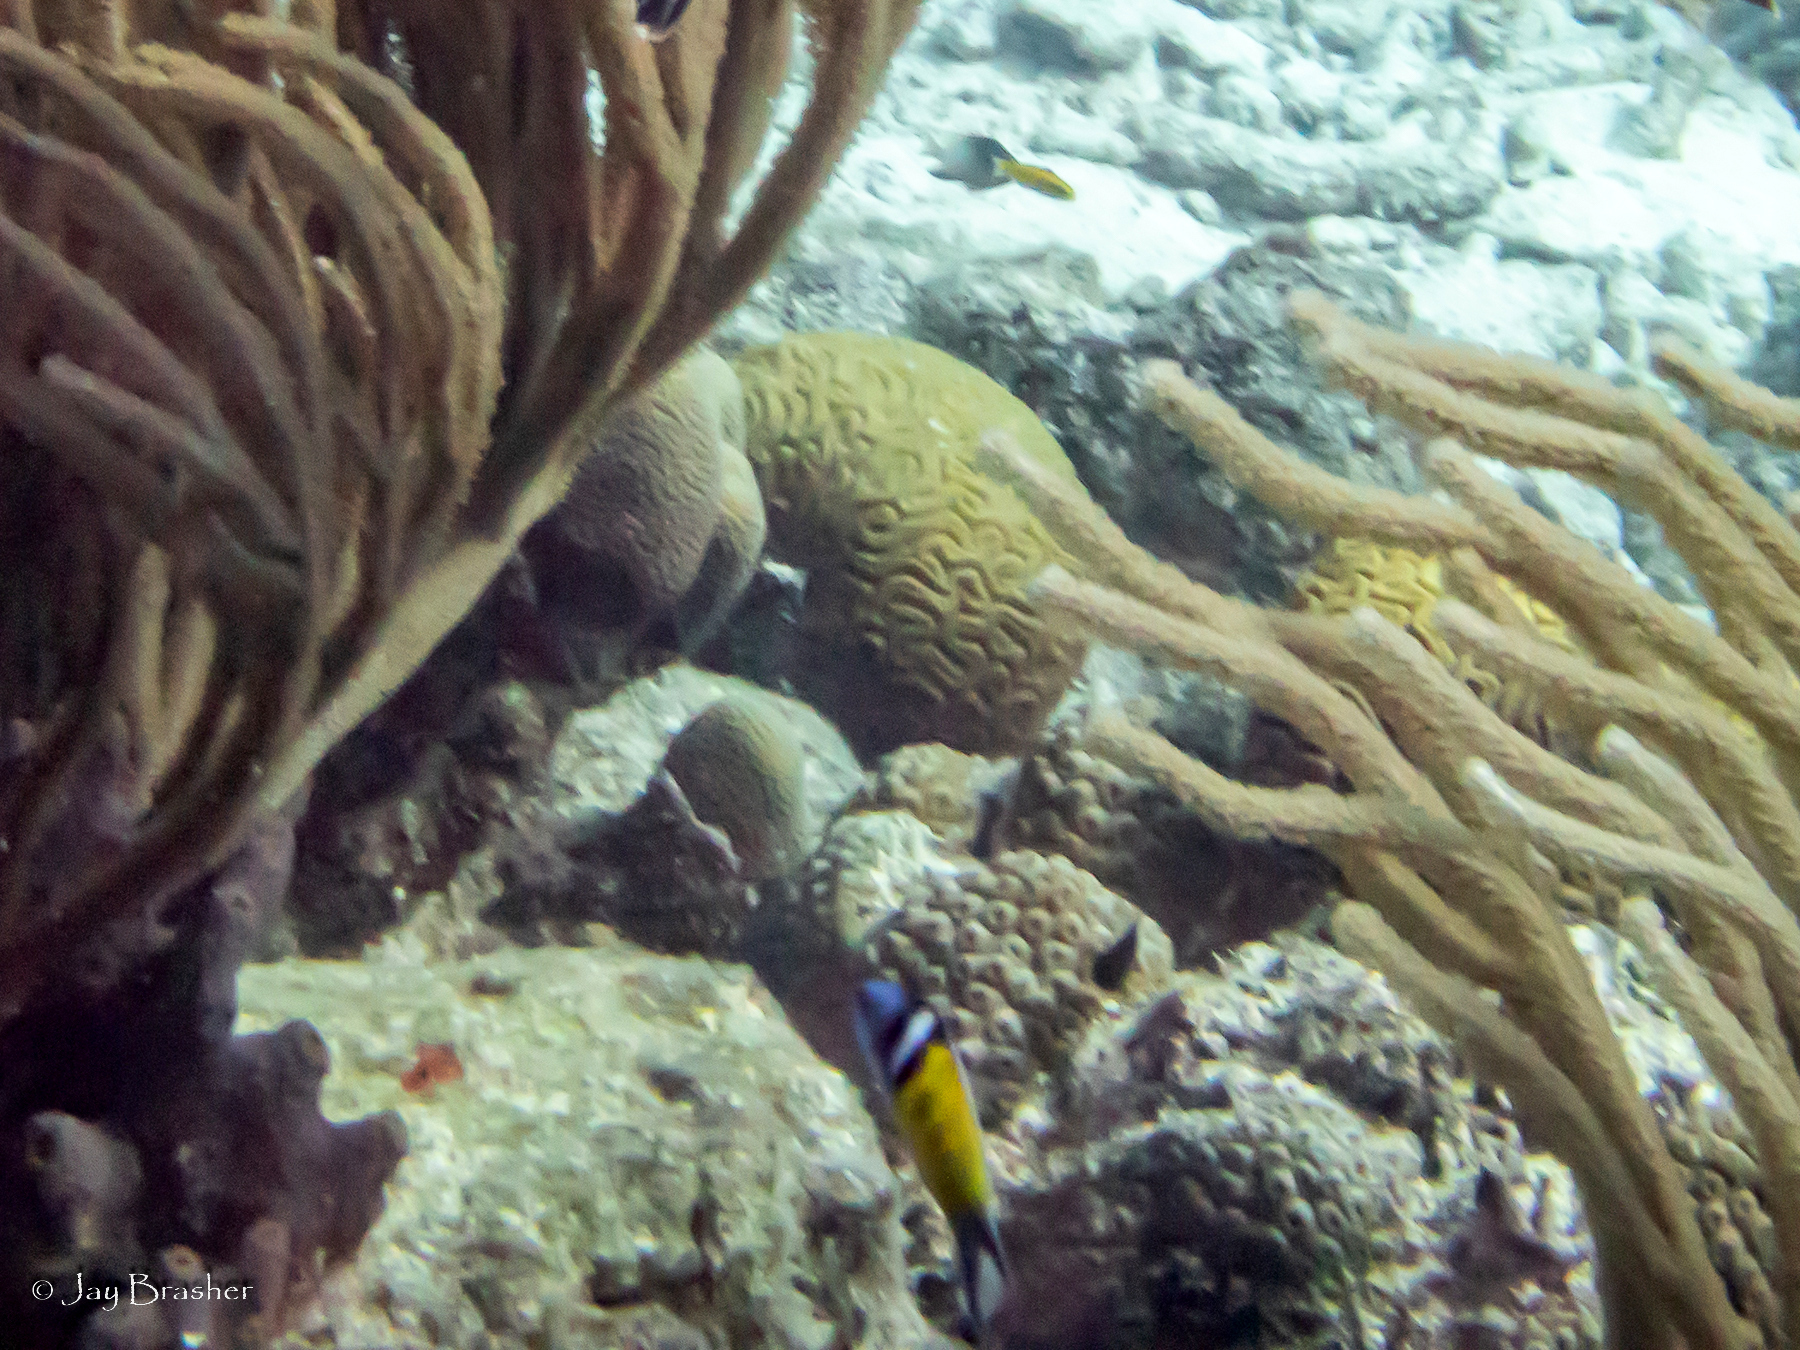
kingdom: Animalia
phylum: Chordata
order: Perciformes
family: Labridae
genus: Thalassoma
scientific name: Thalassoma bifasciatum
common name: Bluehead wrasse
